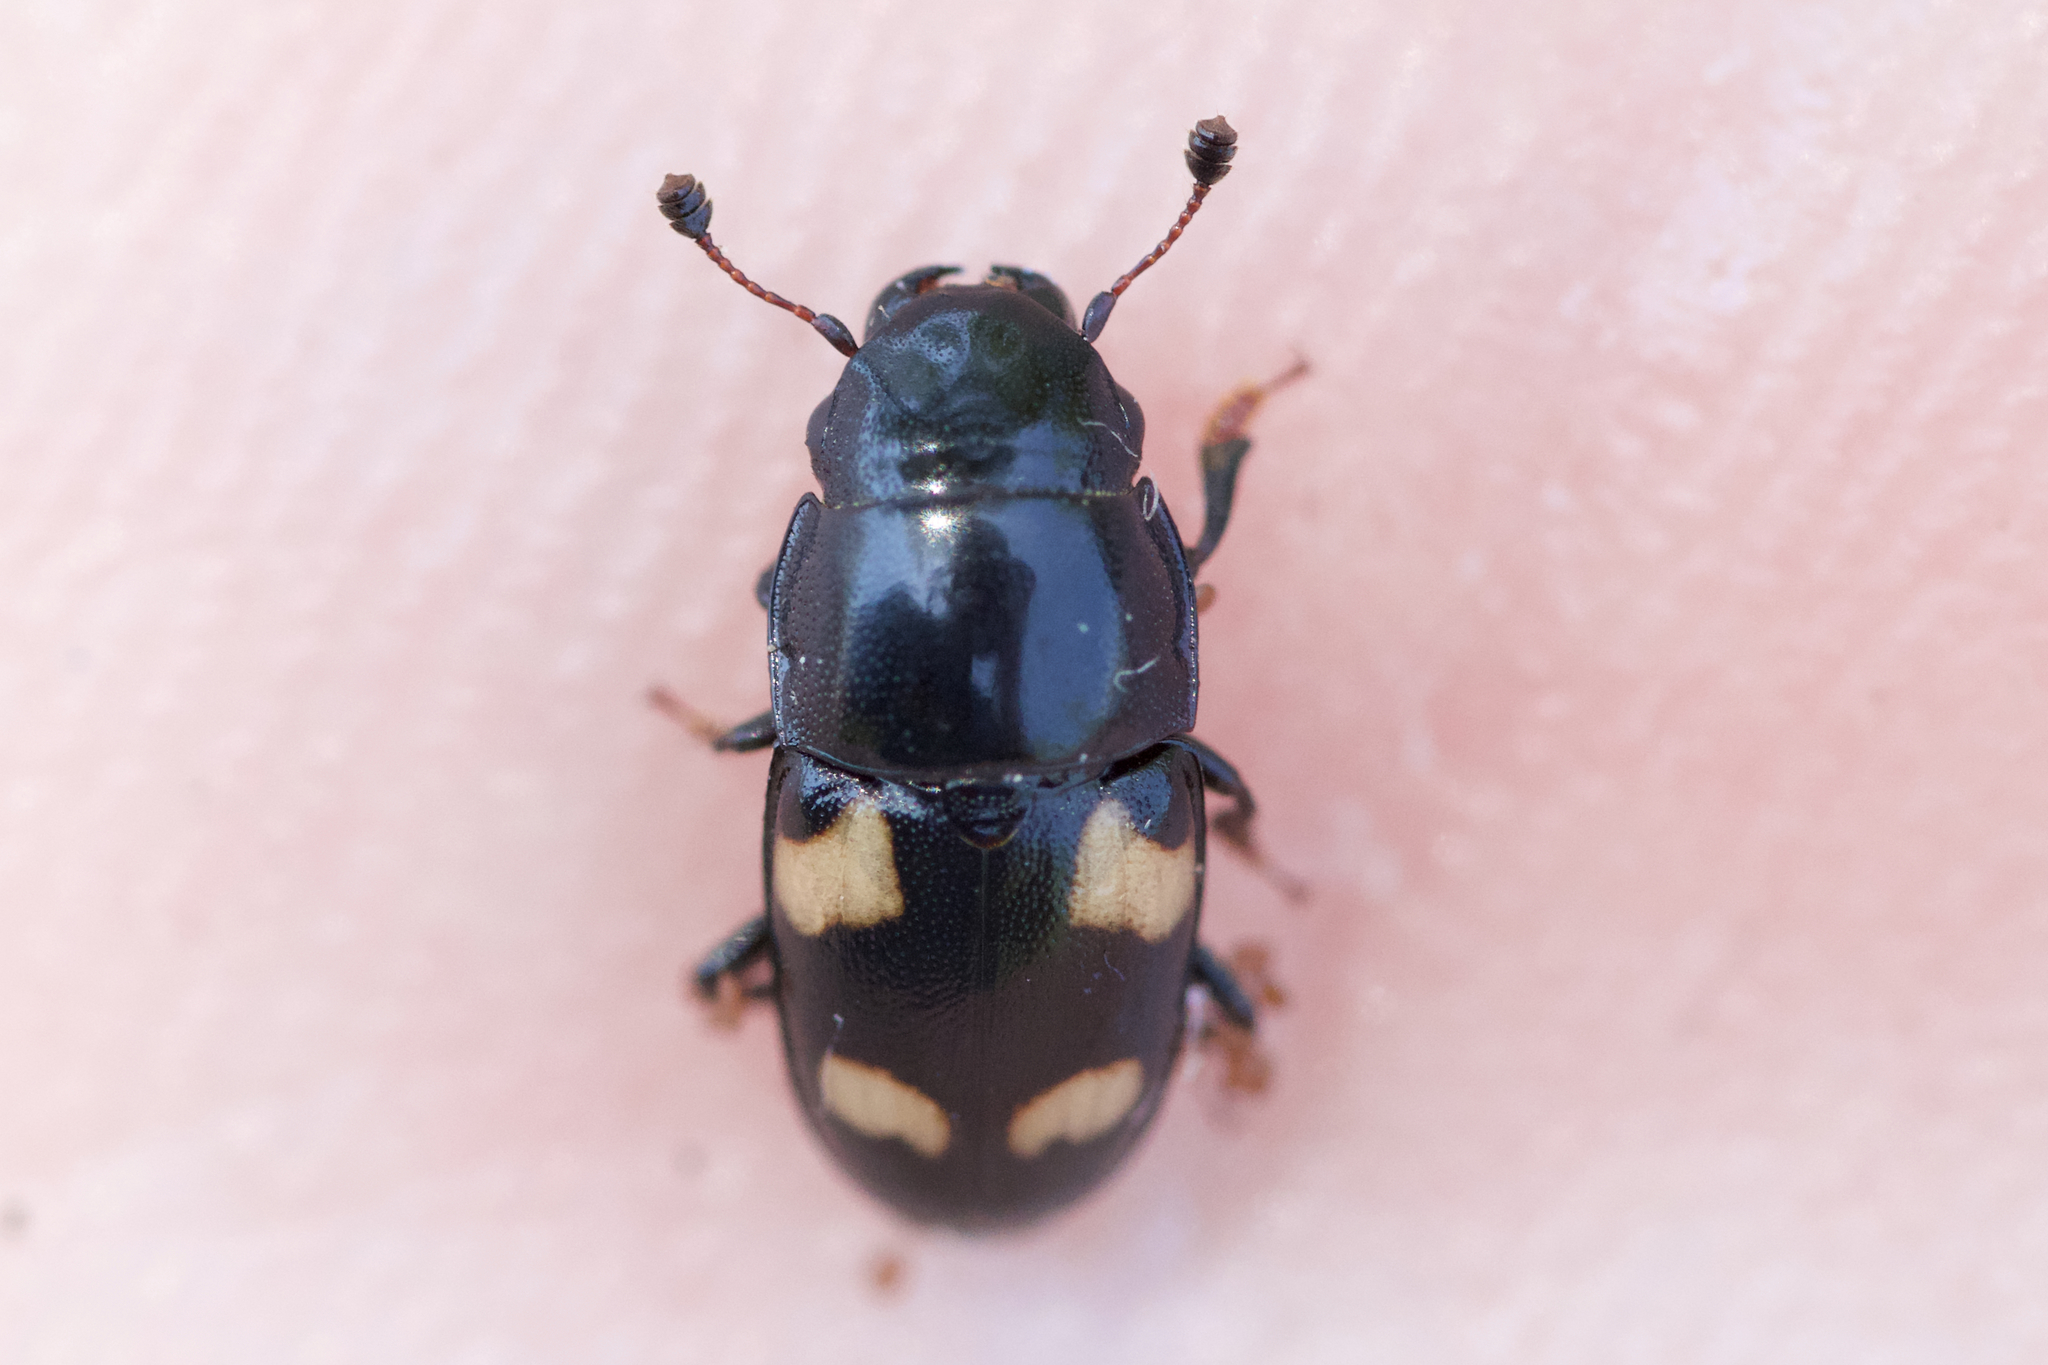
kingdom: Animalia
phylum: Arthropoda
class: Insecta
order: Coleoptera
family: Nitidulidae
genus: Glischrochilus
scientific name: Glischrochilus quadrisignatus
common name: Picnic beetle
